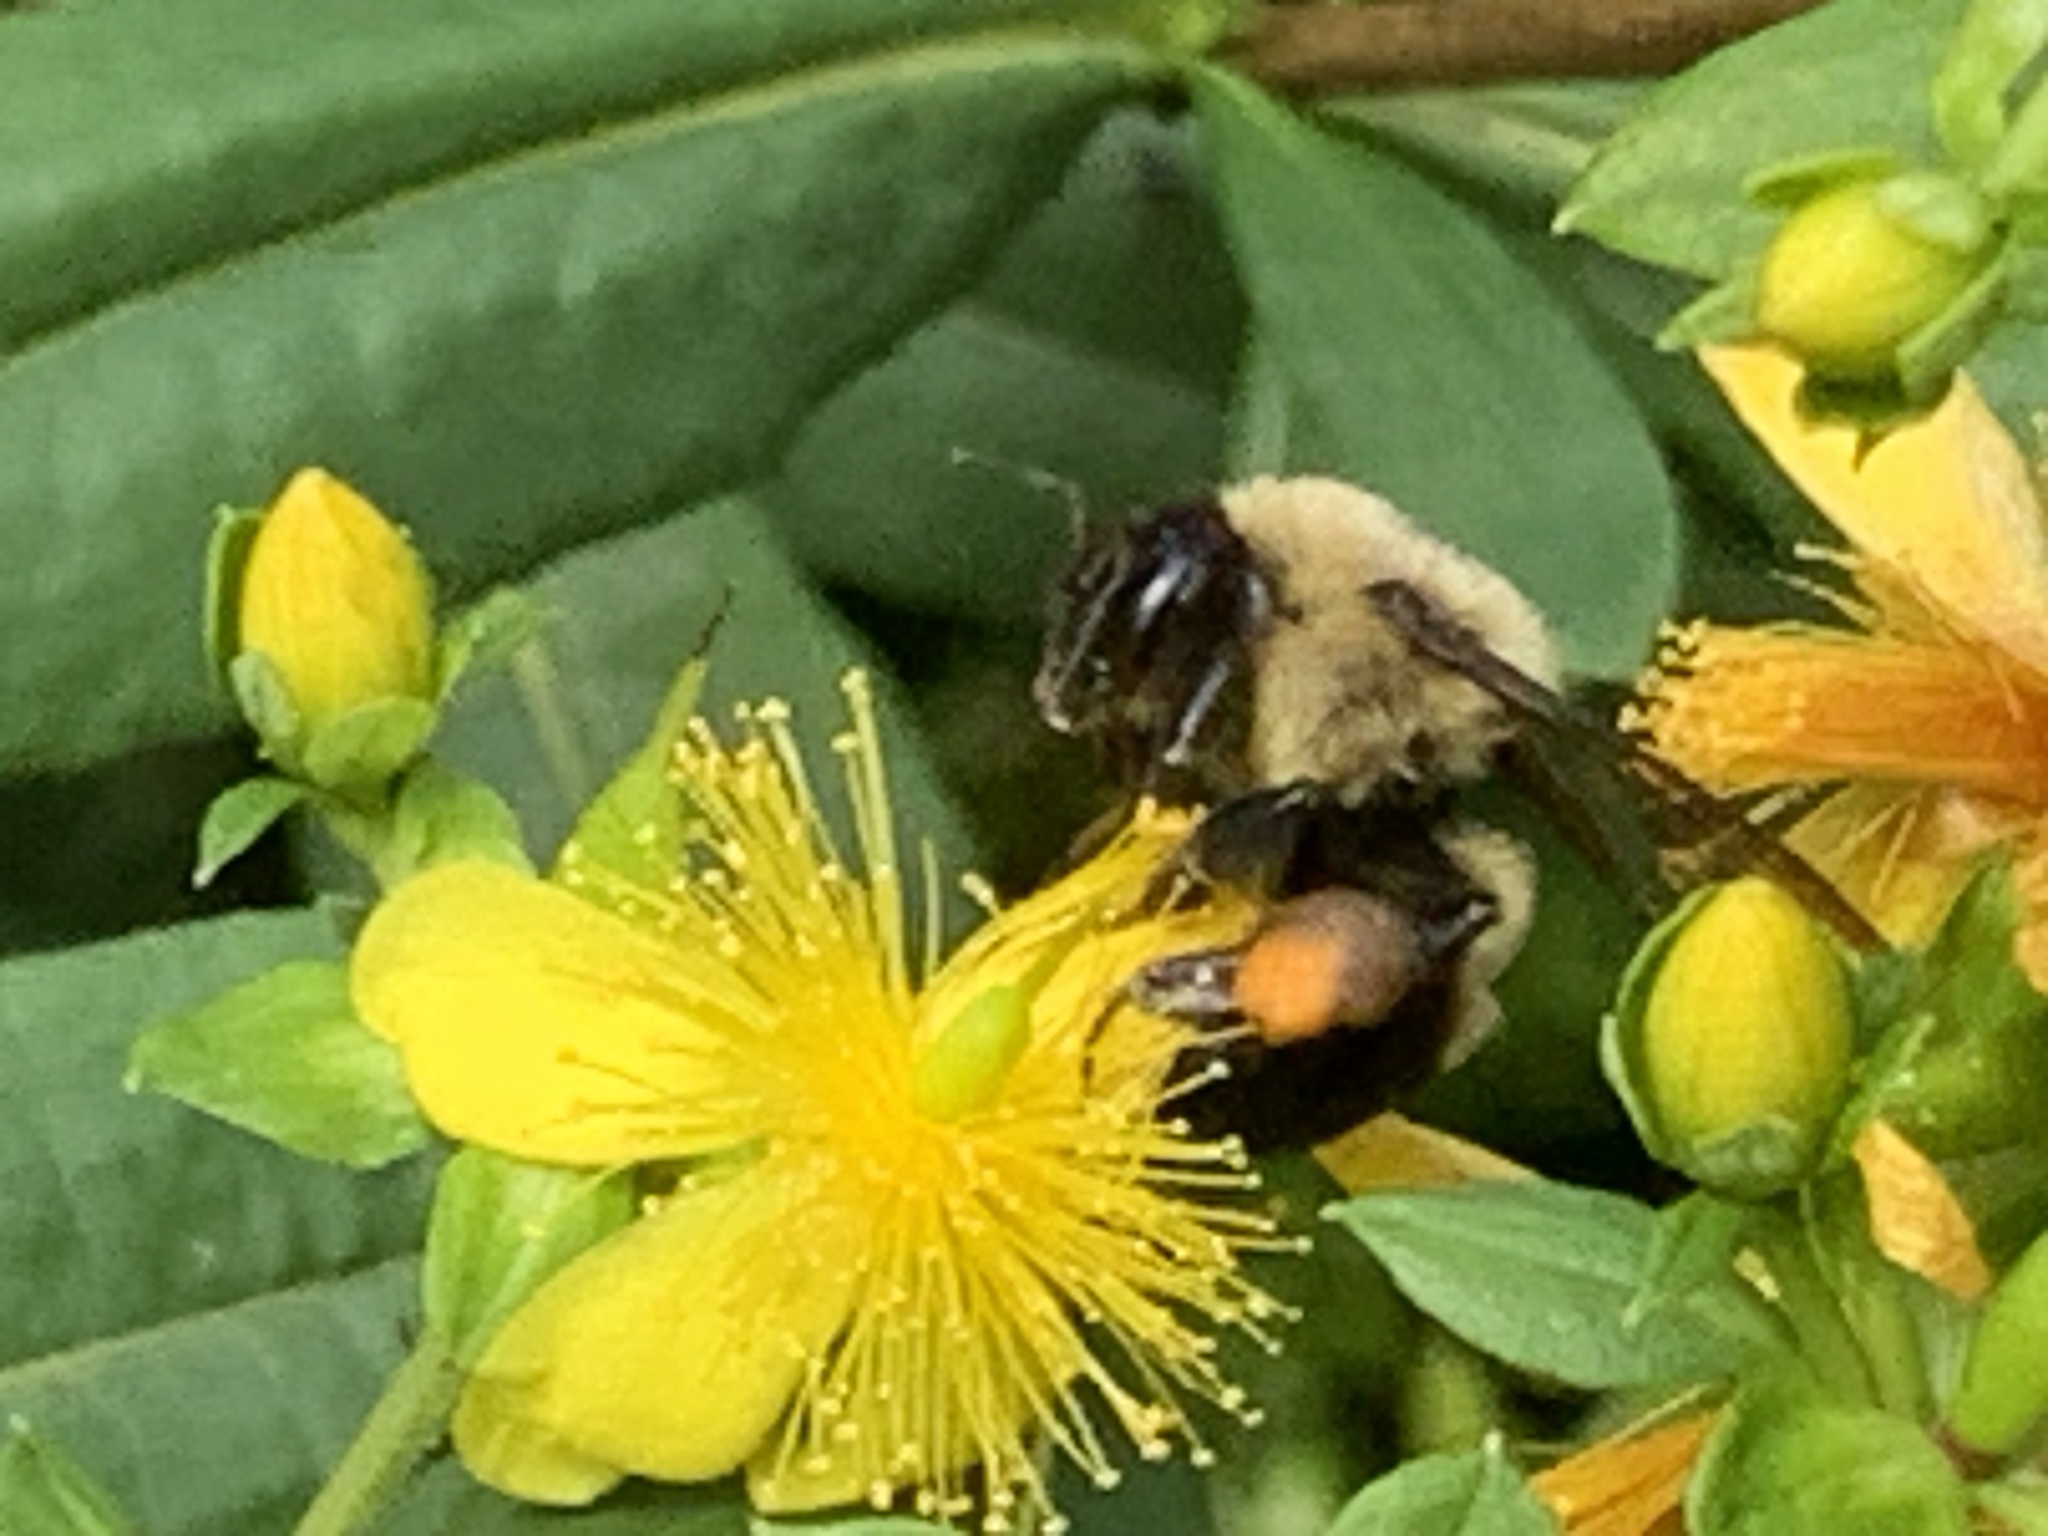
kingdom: Animalia
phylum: Arthropoda
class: Insecta
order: Hymenoptera
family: Apidae
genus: Bombus
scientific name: Bombus griseocollis
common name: Brown-belted bumble bee
